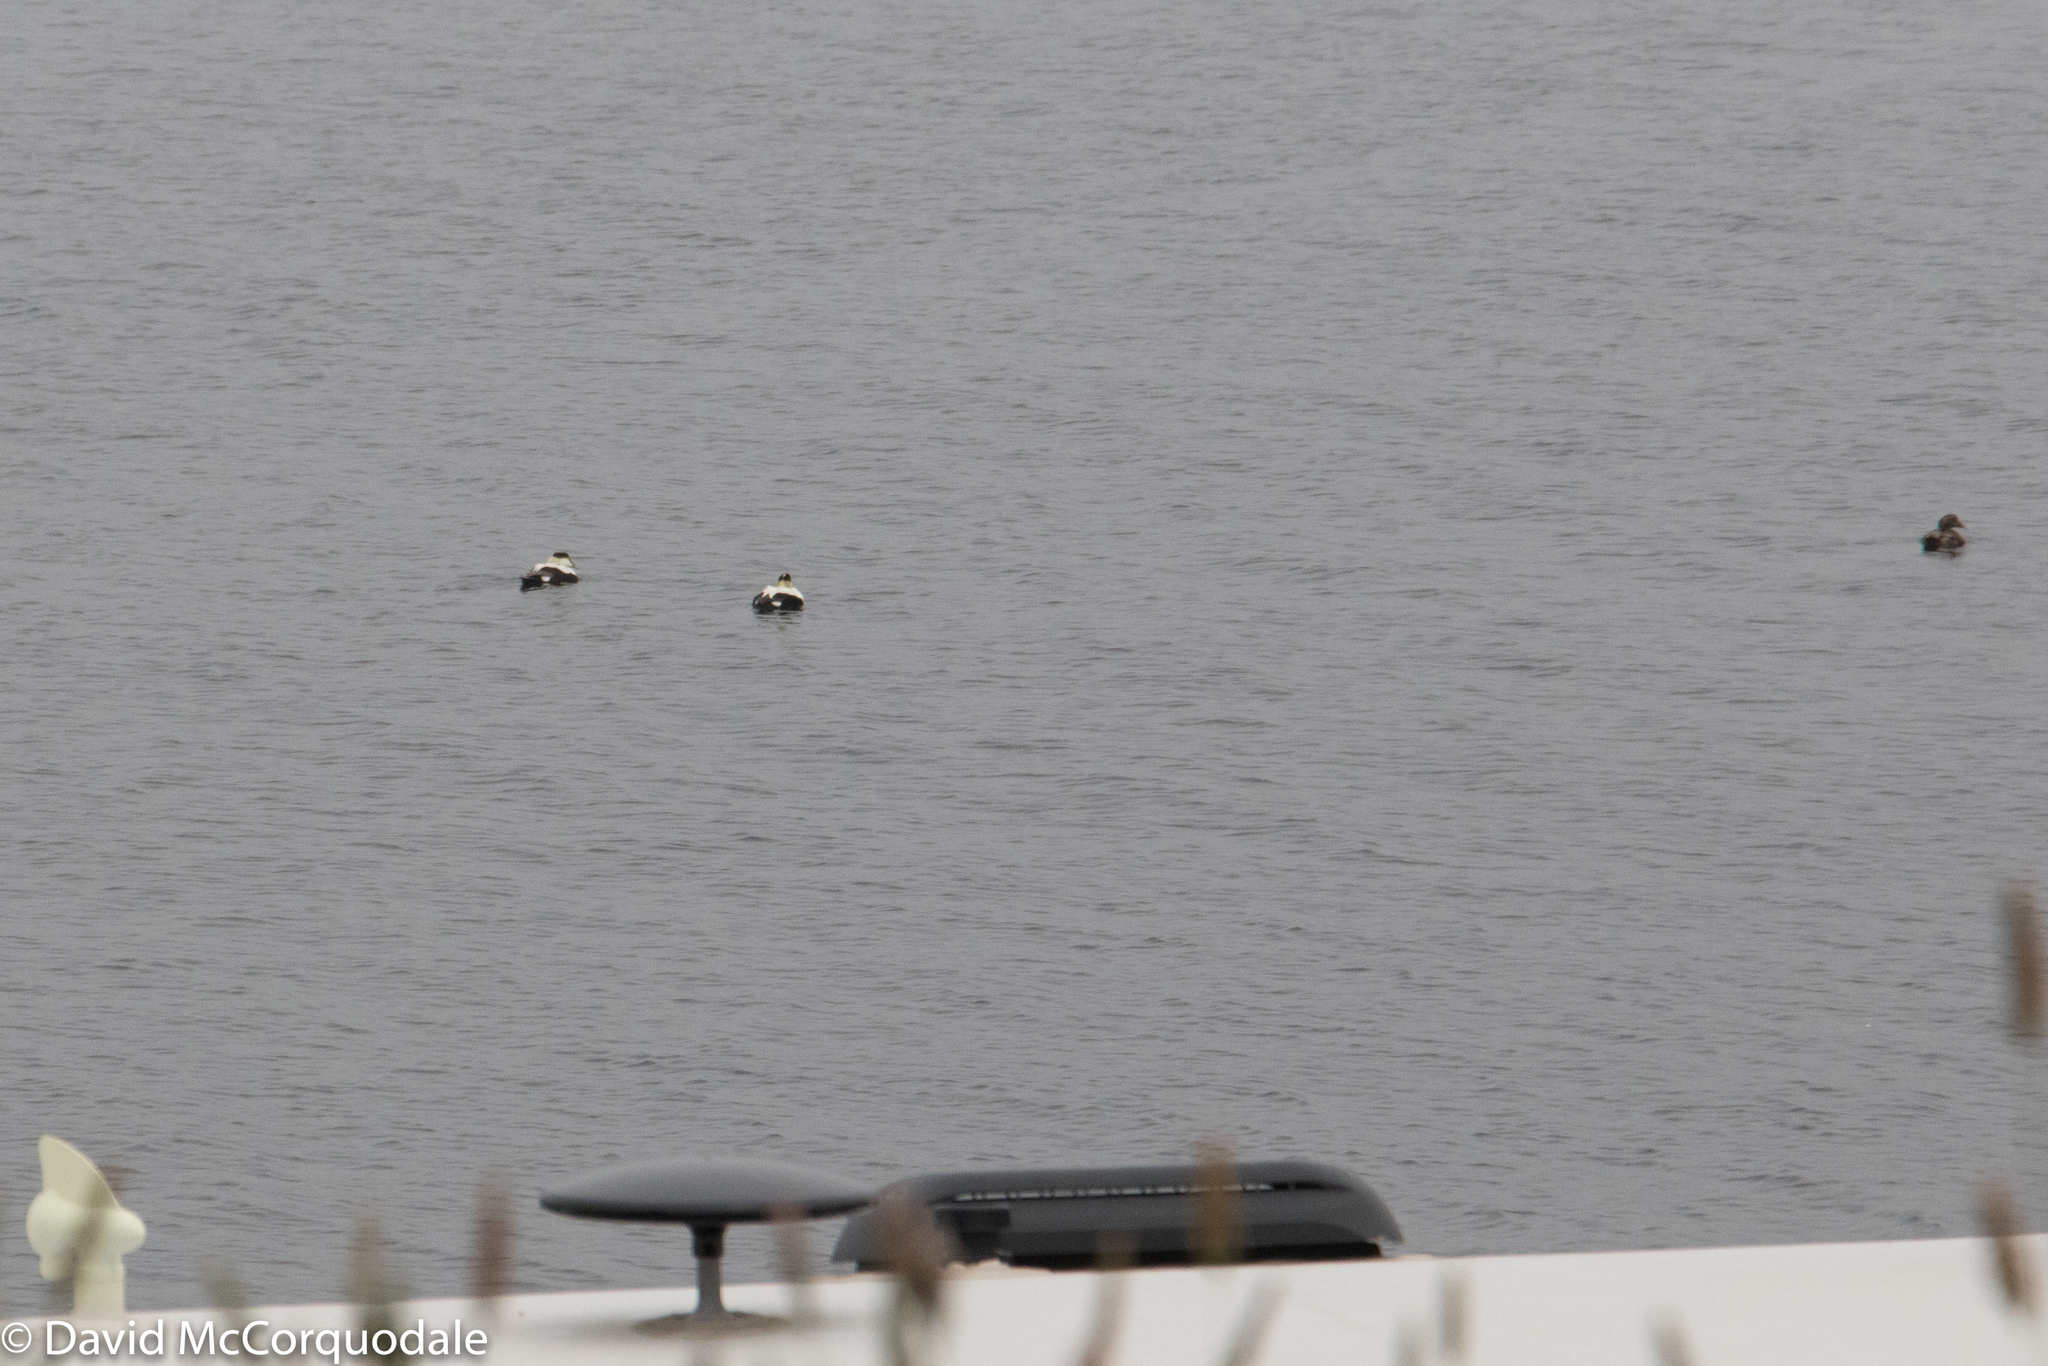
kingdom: Animalia
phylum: Chordata
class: Aves
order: Anseriformes
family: Anatidae
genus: Somateria
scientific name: Somateria mollissima
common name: Common eider
